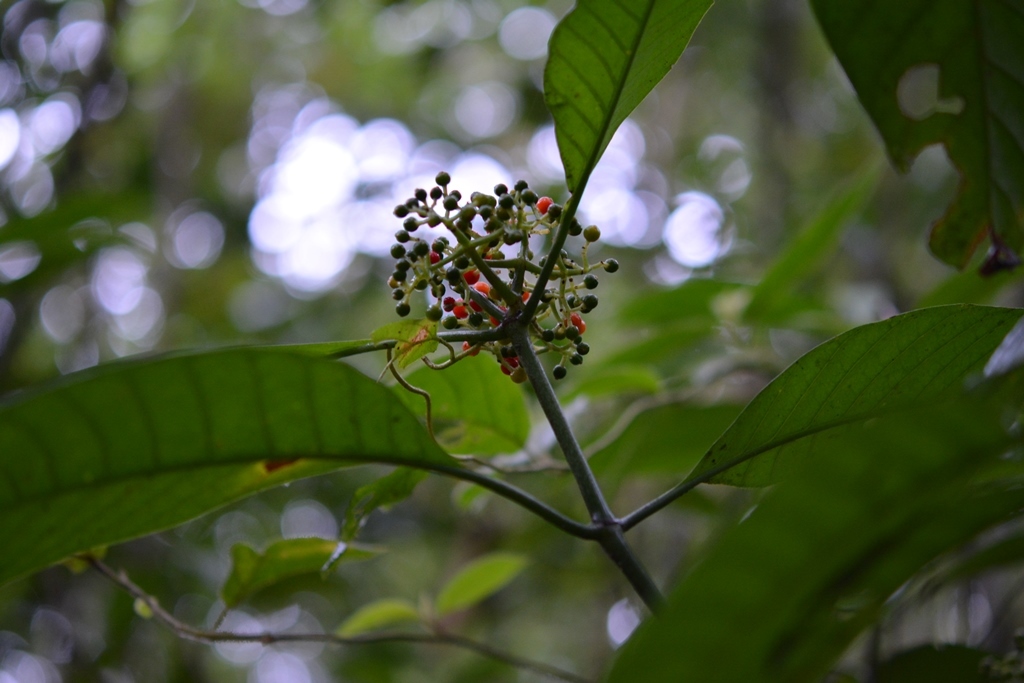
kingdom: Plantae
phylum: Tracheophyta
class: Magnoliopsida
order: Gentianales
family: Rubiaceae
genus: Psychotria
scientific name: Psychotria trichotoma
